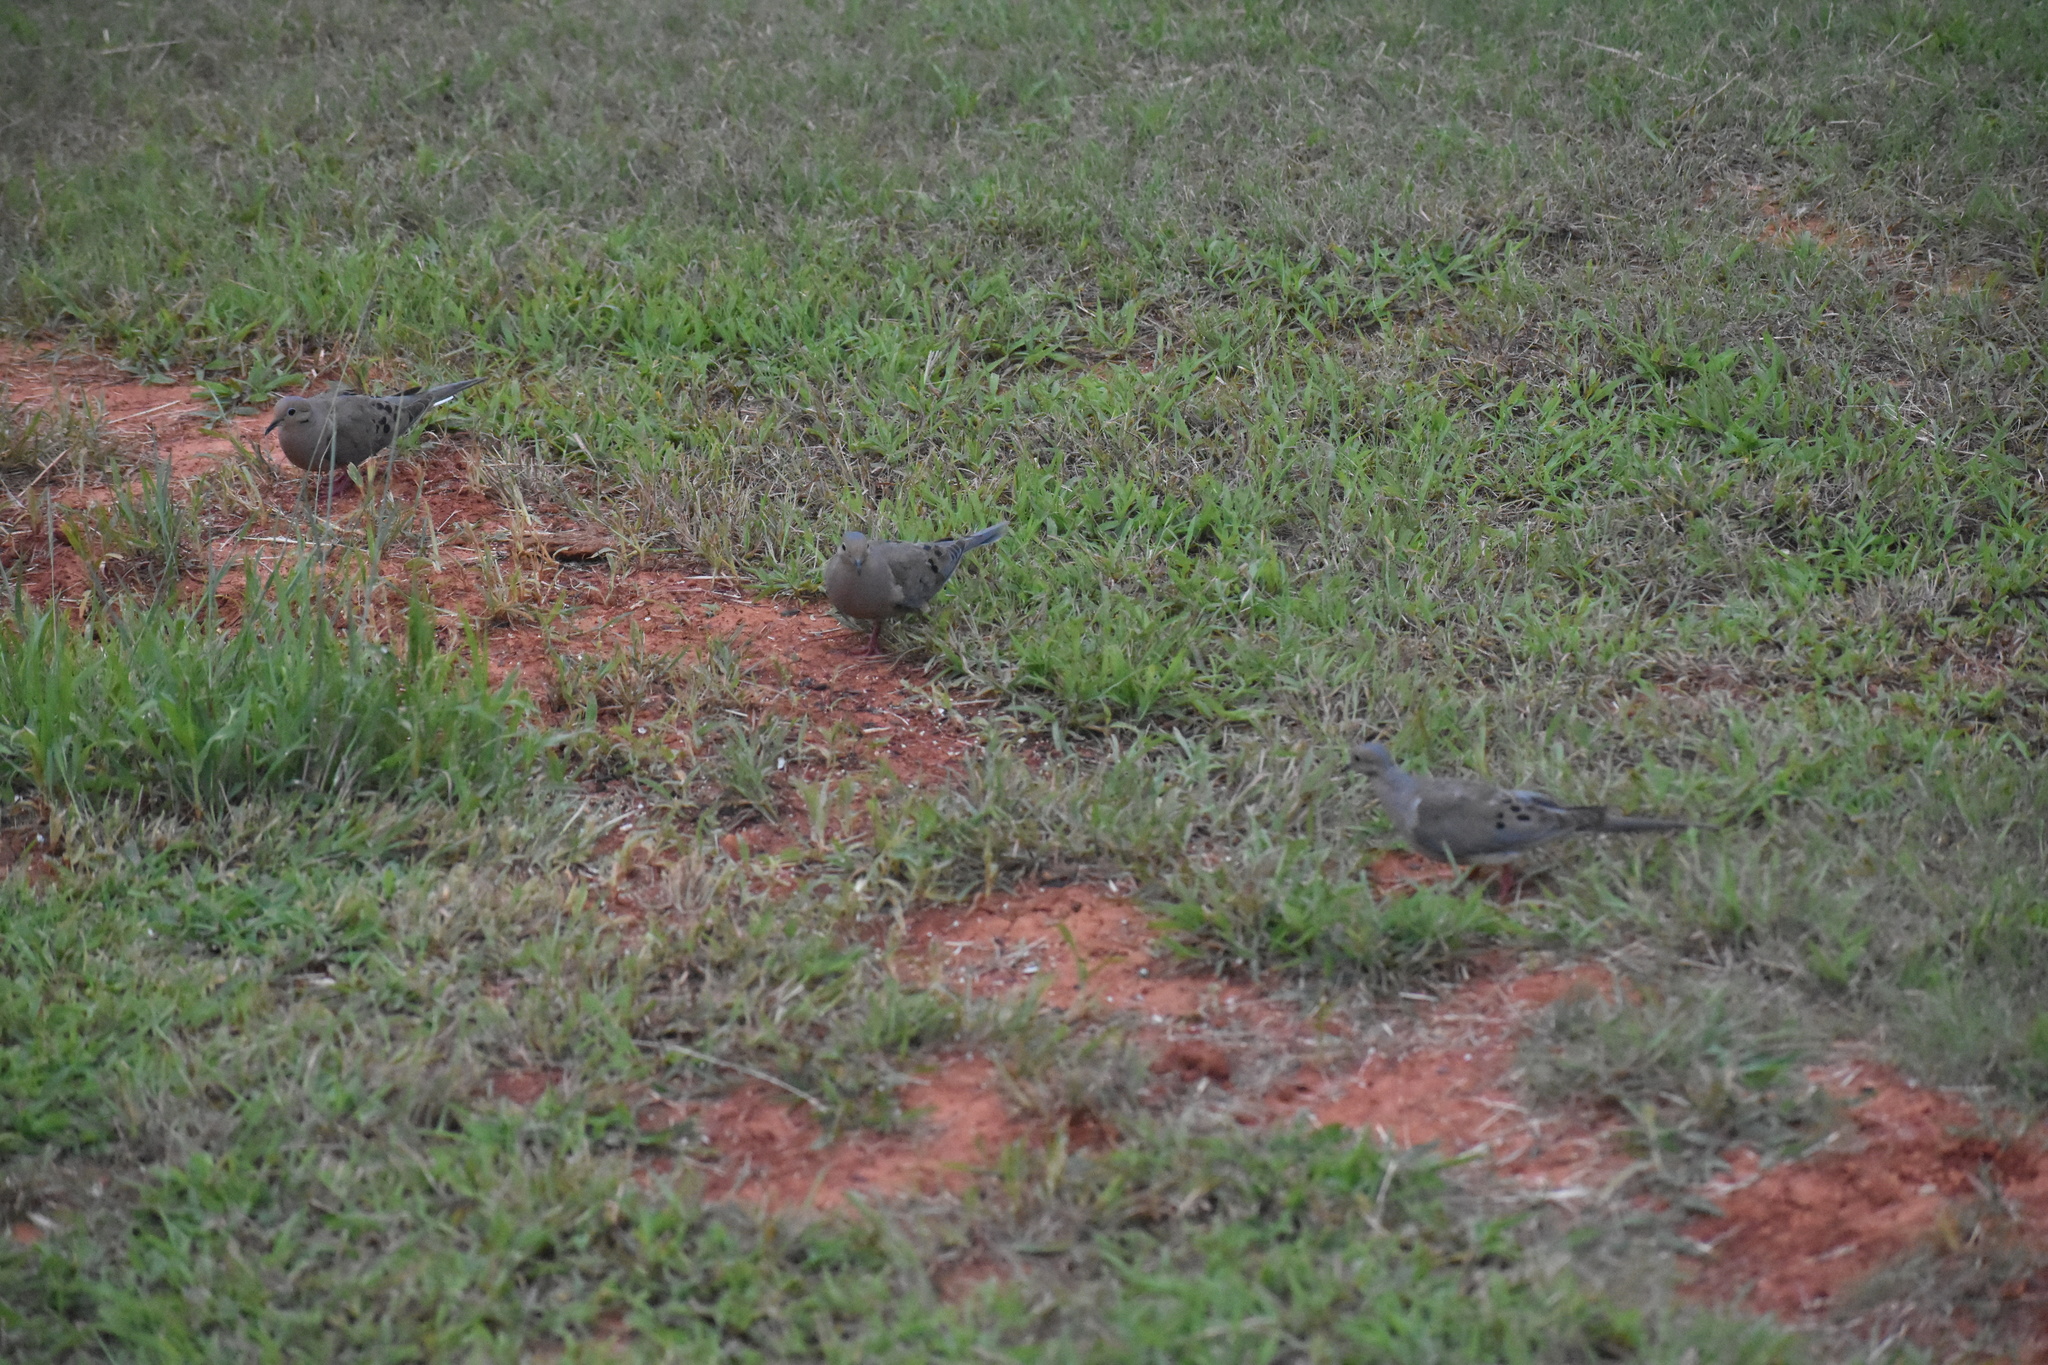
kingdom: Animalia
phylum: Chordata
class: Aves
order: Columbiformes
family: Columbidae
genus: Zenaida
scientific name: Zenaida macroura
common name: Mourning dove
